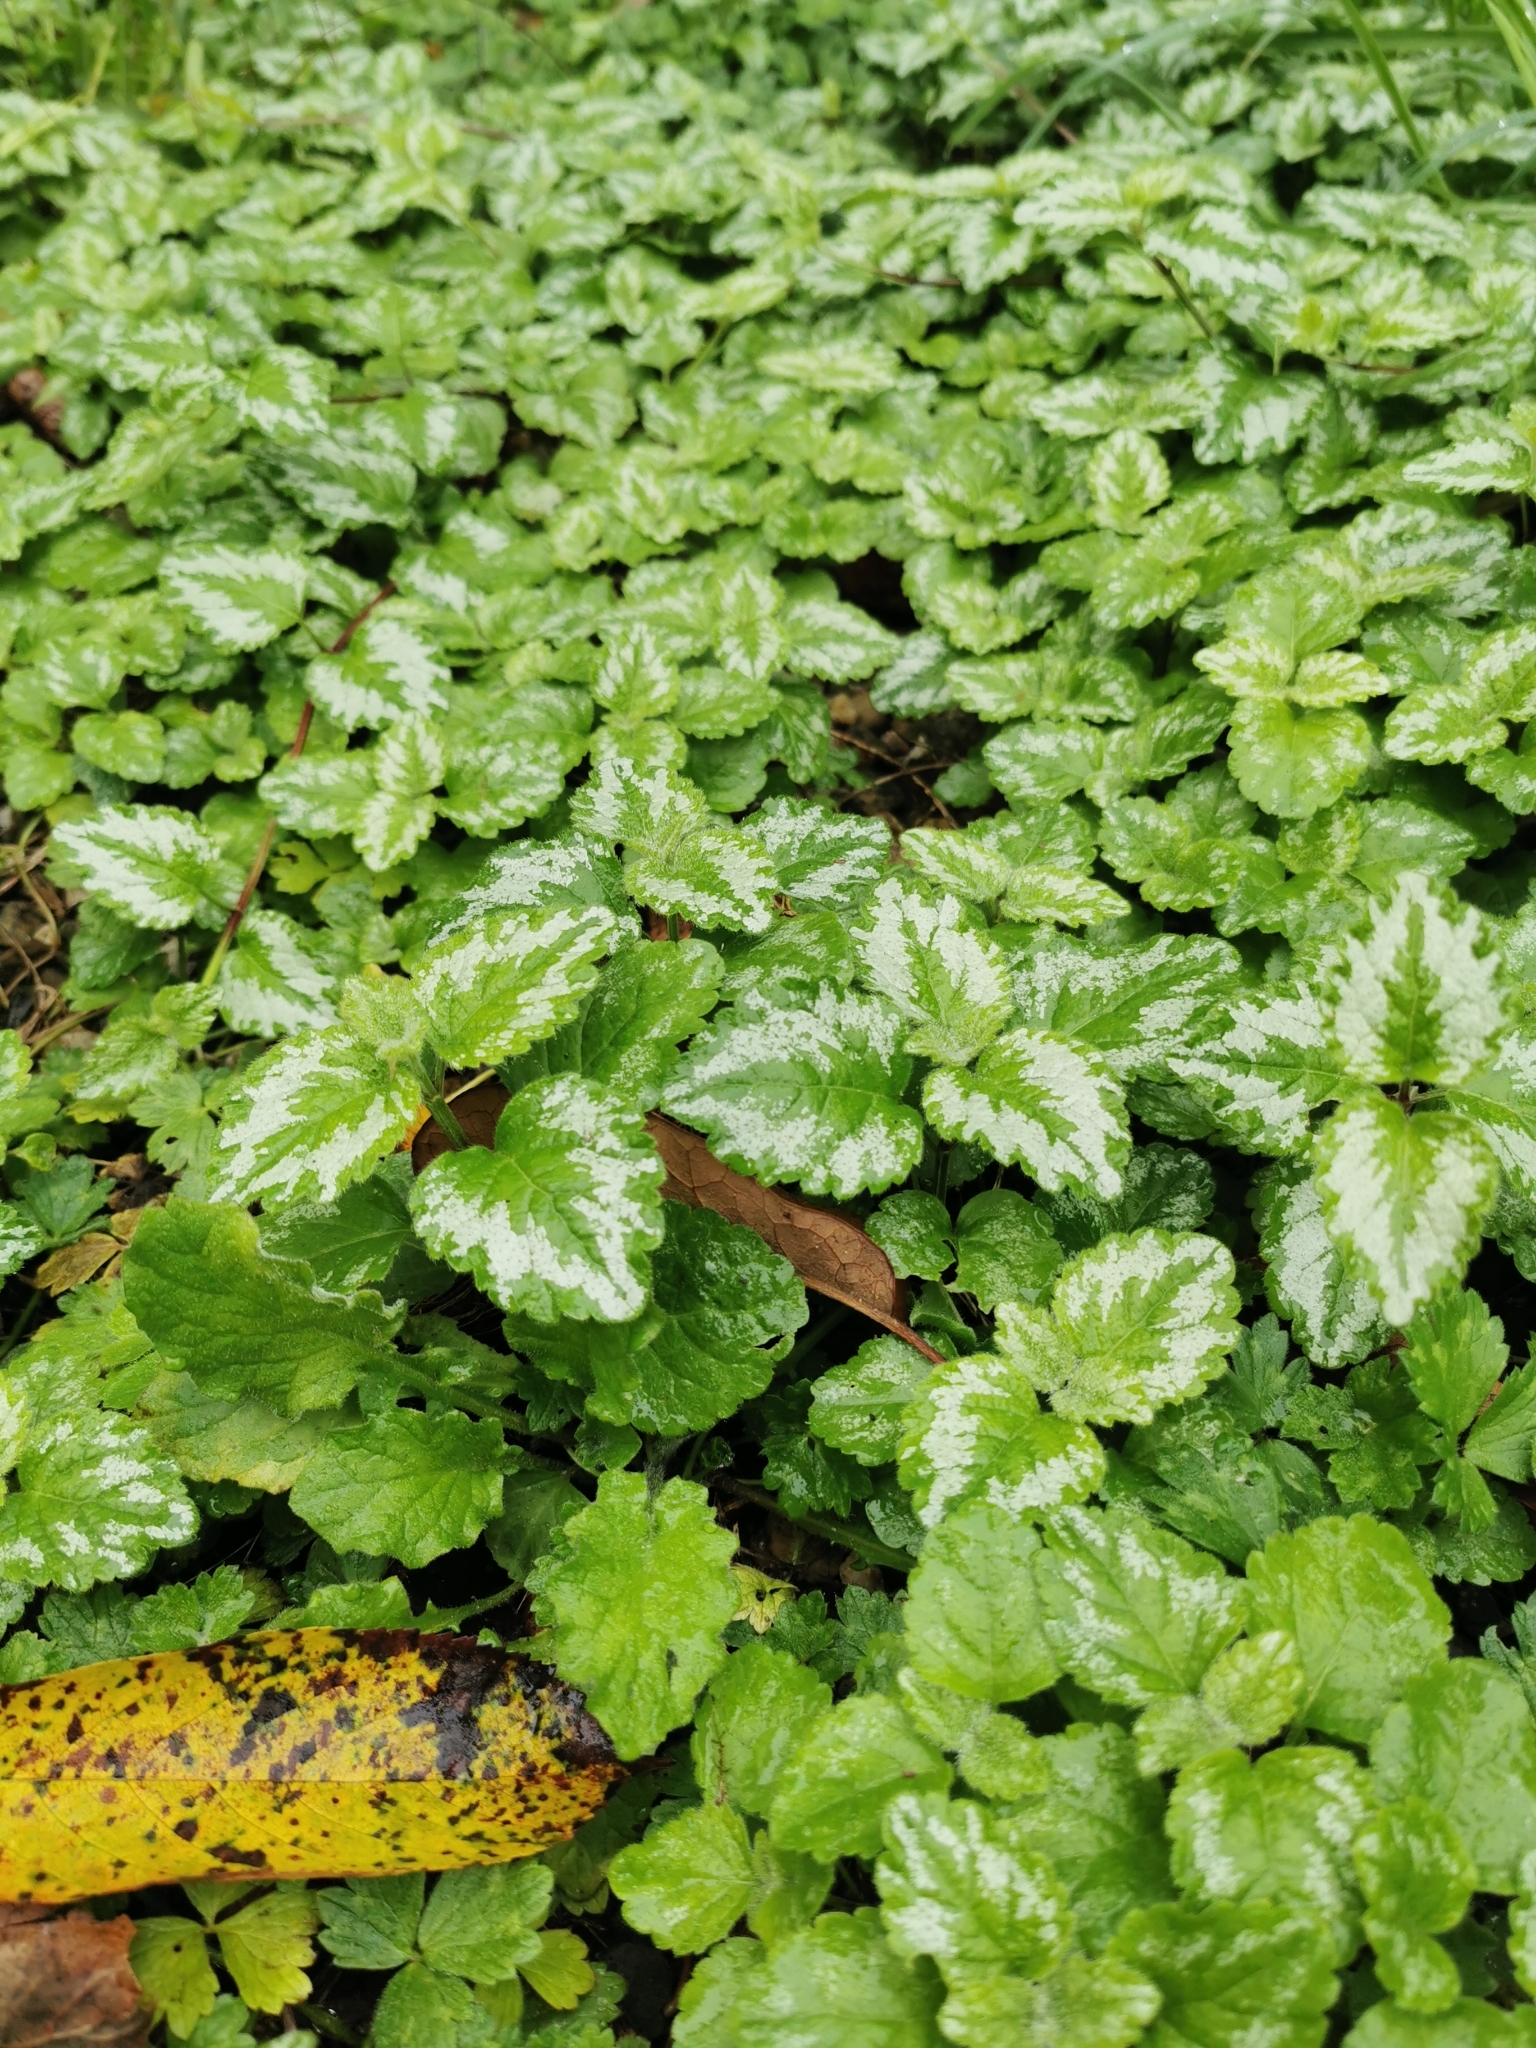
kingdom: Plantae
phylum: Tracheophyta
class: Magnoliopsida
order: Lamiales
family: Lamiaceae
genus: Lamium
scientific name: Lamium galeobdolon
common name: Yellow archangel
